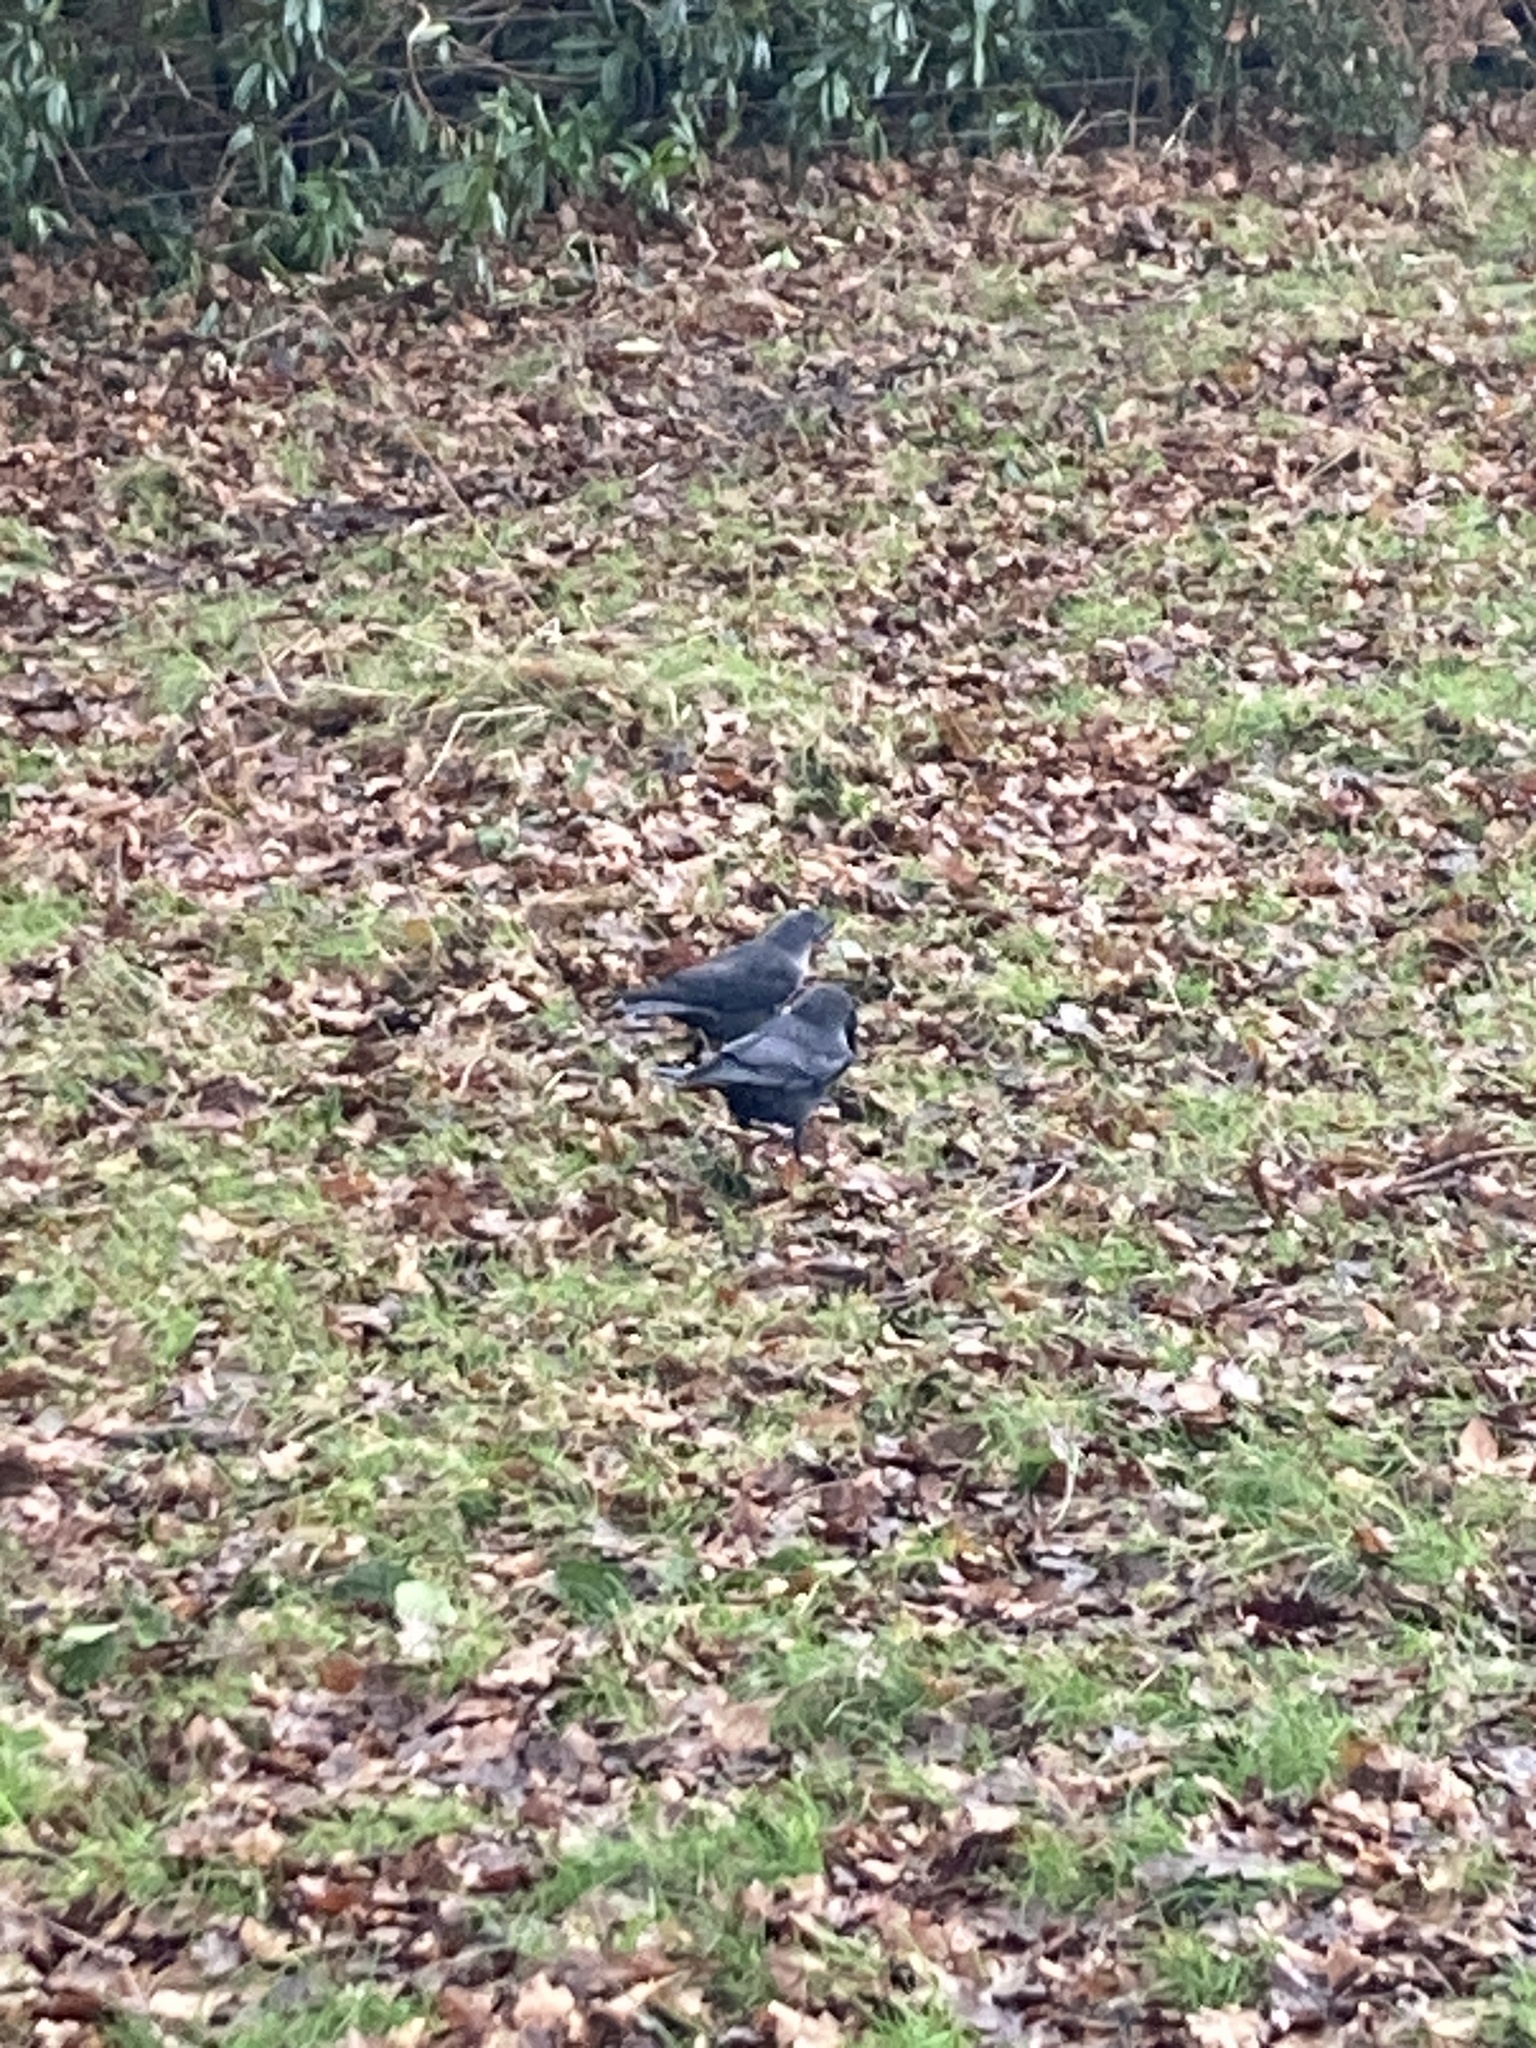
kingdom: Animalia
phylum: Chordata
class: Aves
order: Passeriformes
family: Corvidae
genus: Coloeus
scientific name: Coloeus monedula
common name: Western jackdaw
